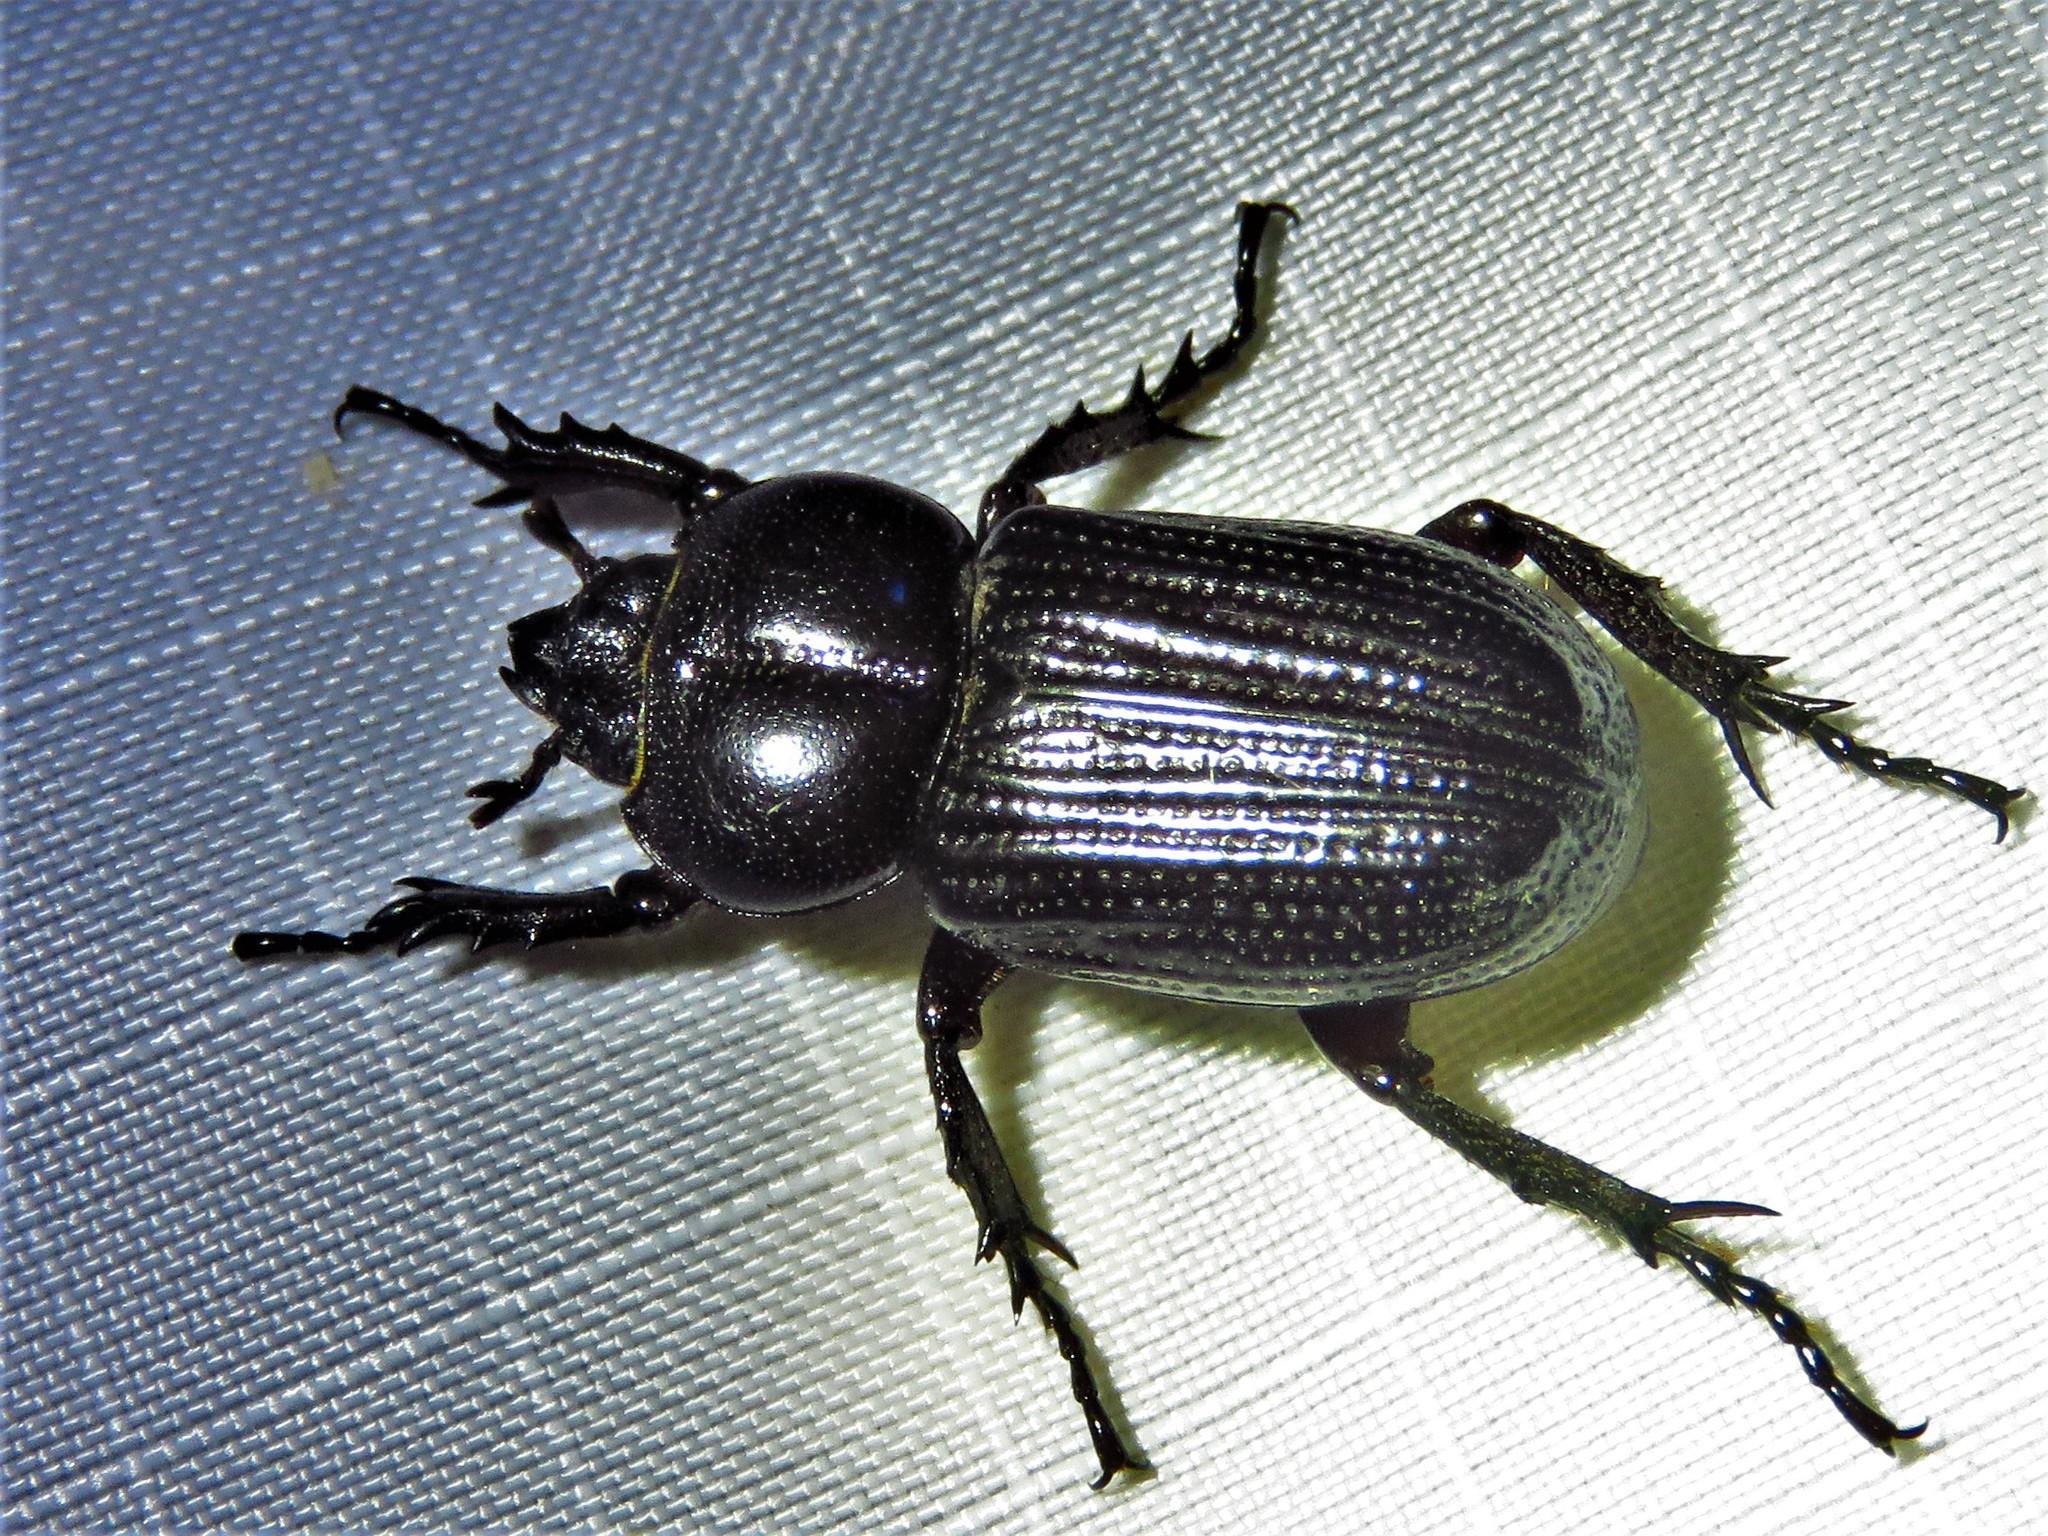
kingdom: Animalia
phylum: Arthropoda
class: Insecta
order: Coleoptera
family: Scarabaeidae
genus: Phileurus
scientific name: Phileurus valgus
